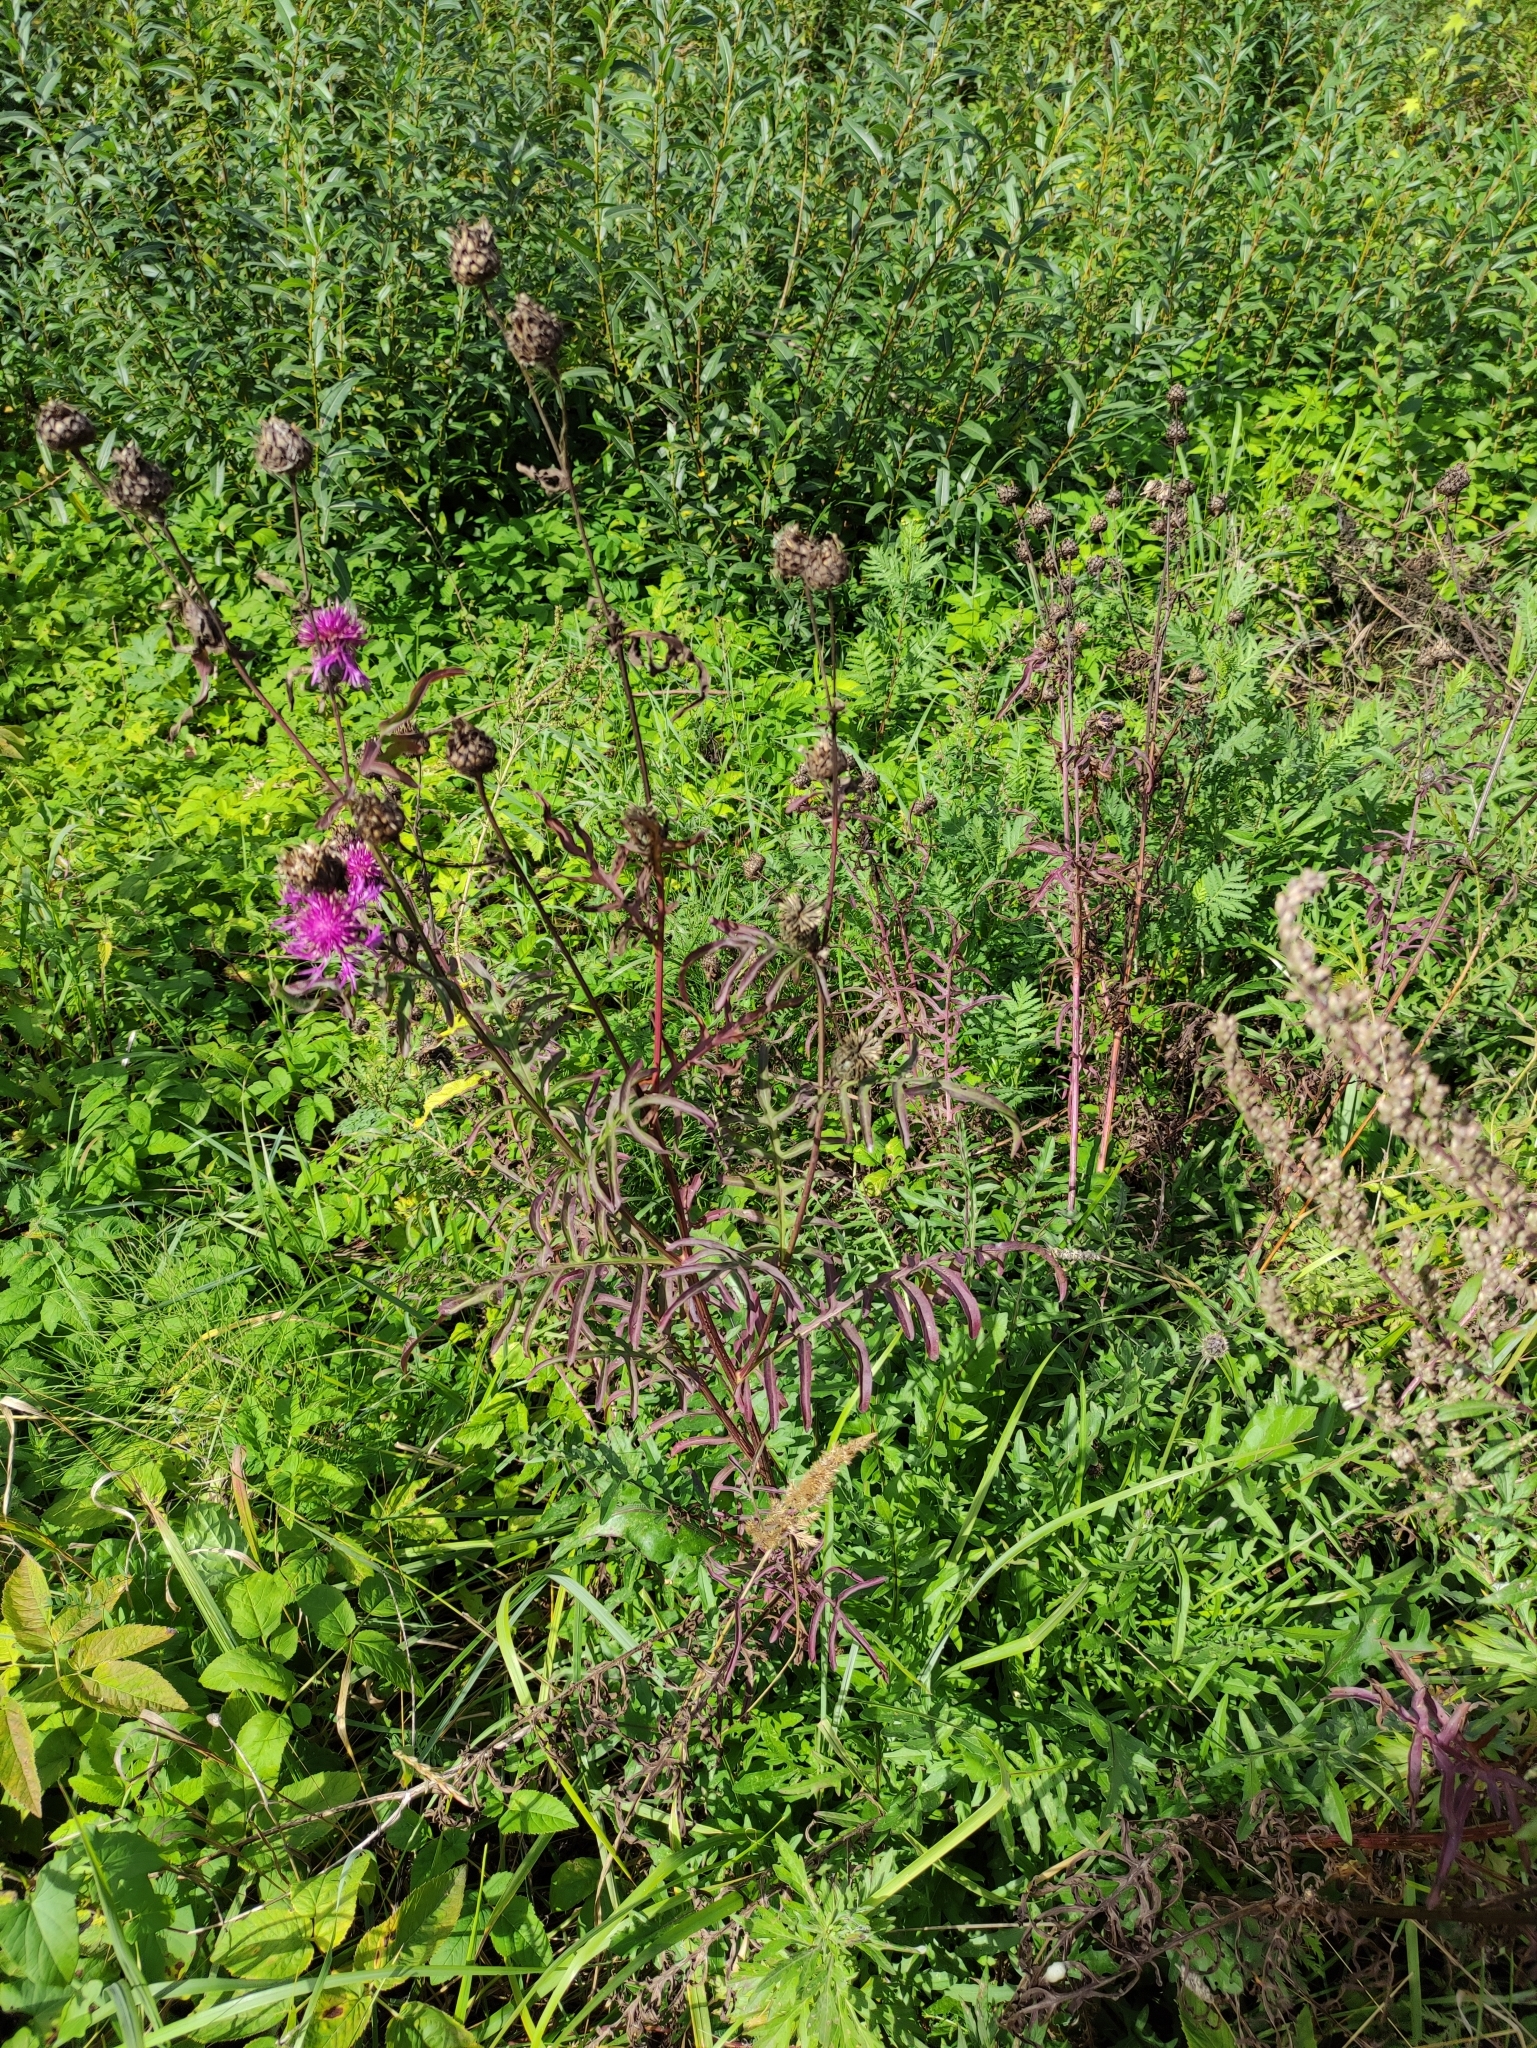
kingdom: Plantae
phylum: Tracheophyta
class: Magnoliopsida
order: Asterales
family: Asteraceae
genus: Centaurea
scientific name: Centaurea scabiosa
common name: Greater knapweed
